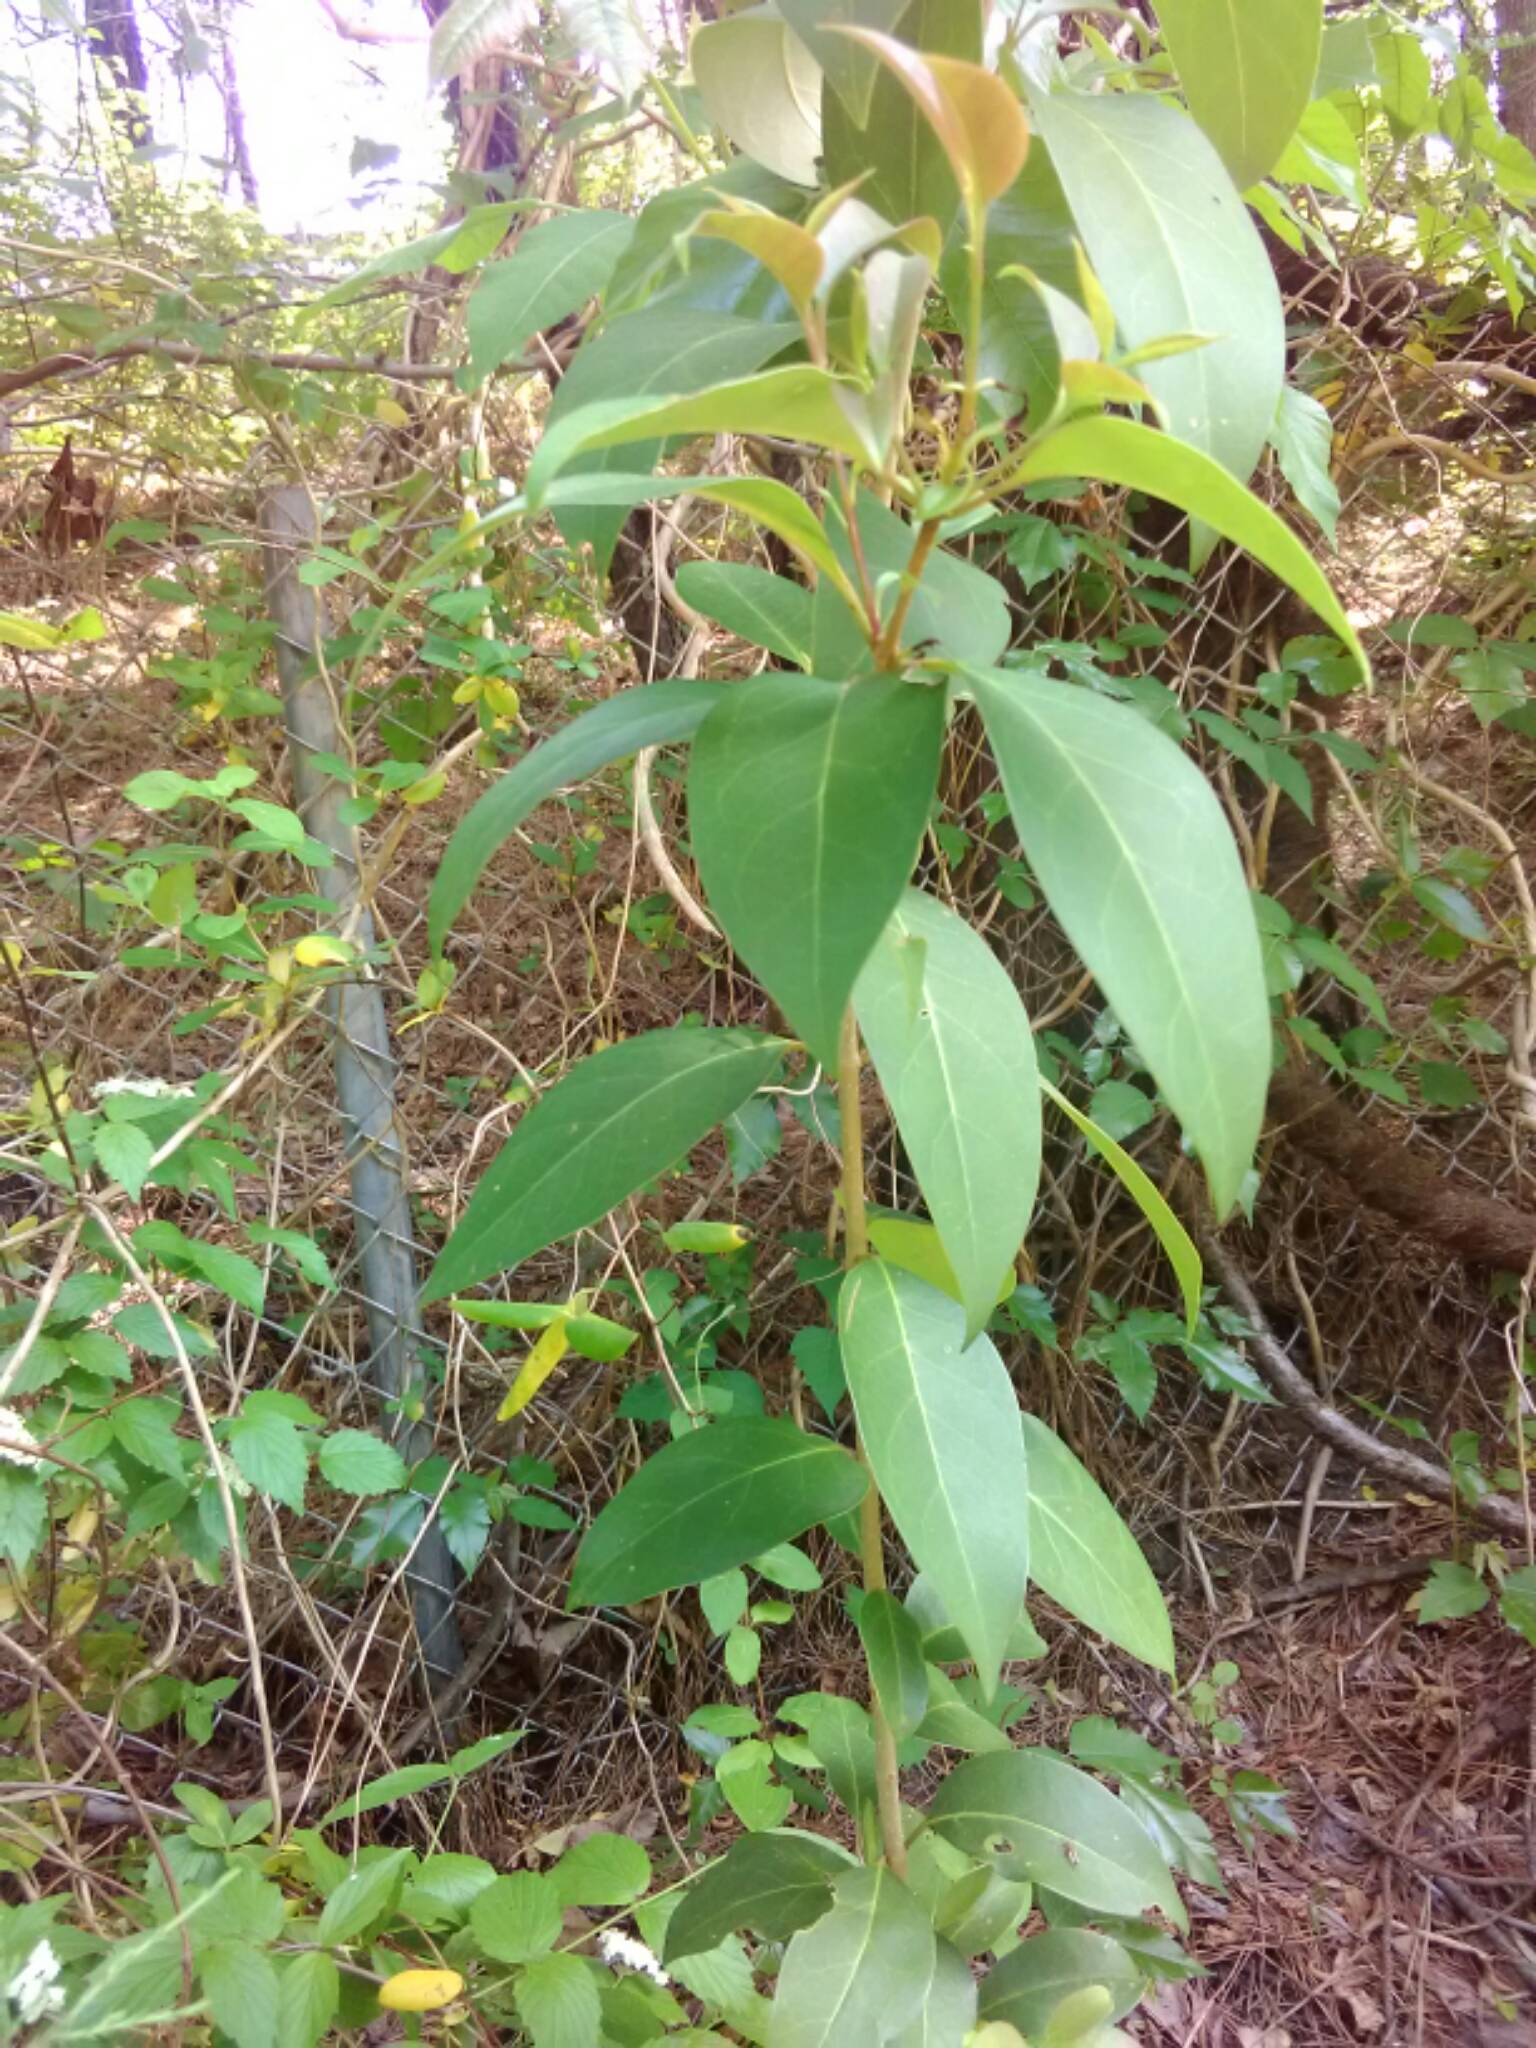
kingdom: Plantae
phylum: Tracheophyta
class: Magnoliopsida
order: Lamiales
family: Oleaceae
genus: Ligustrum
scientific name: Ligustrum lucidum
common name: Glossy privet
